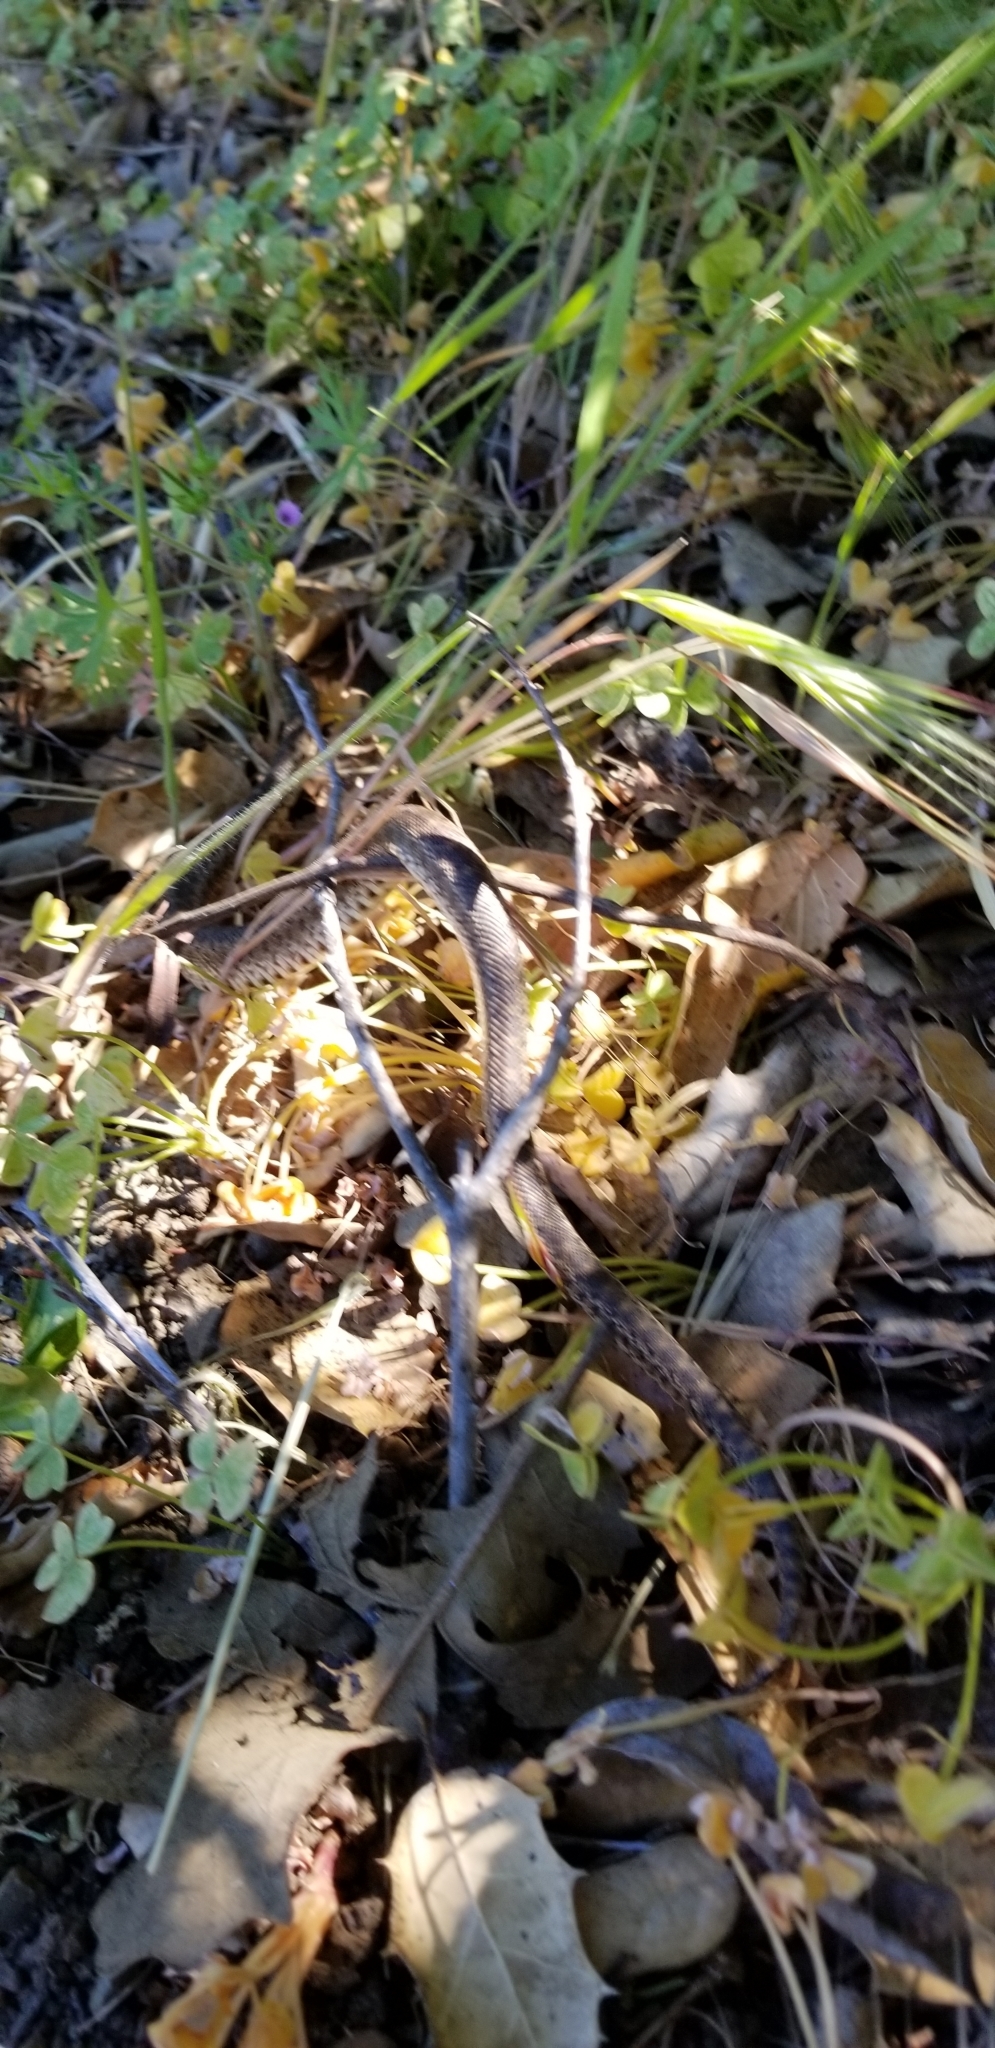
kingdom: Animalia
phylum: Chordata
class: Squamata
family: Colubridae
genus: Pituophis
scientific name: Pituophis catenifer
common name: Gopher snake
